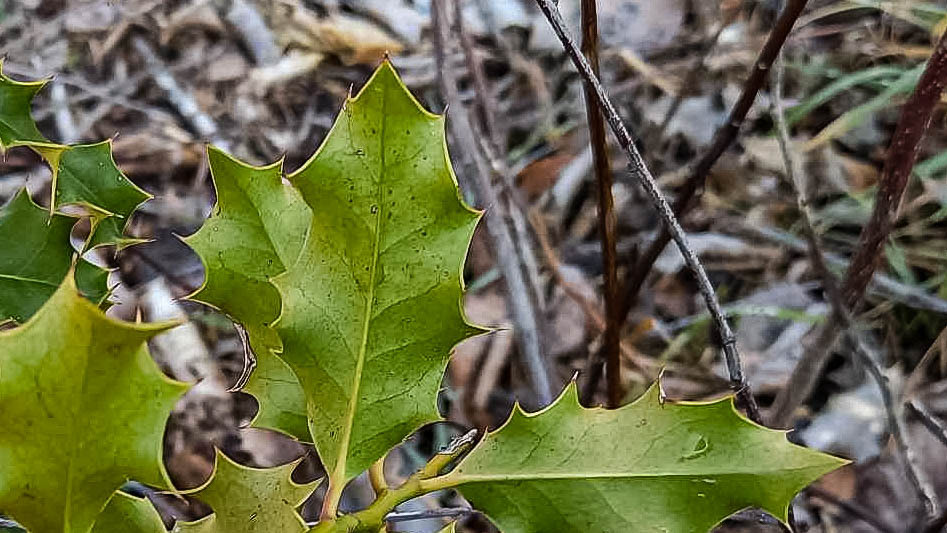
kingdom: Plantae
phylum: Tracheophyta
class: Magnoliopsida
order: Aquifoliales
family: Aquifoliaceae
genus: Ilex
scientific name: Ilex aquifolium
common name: English holly
